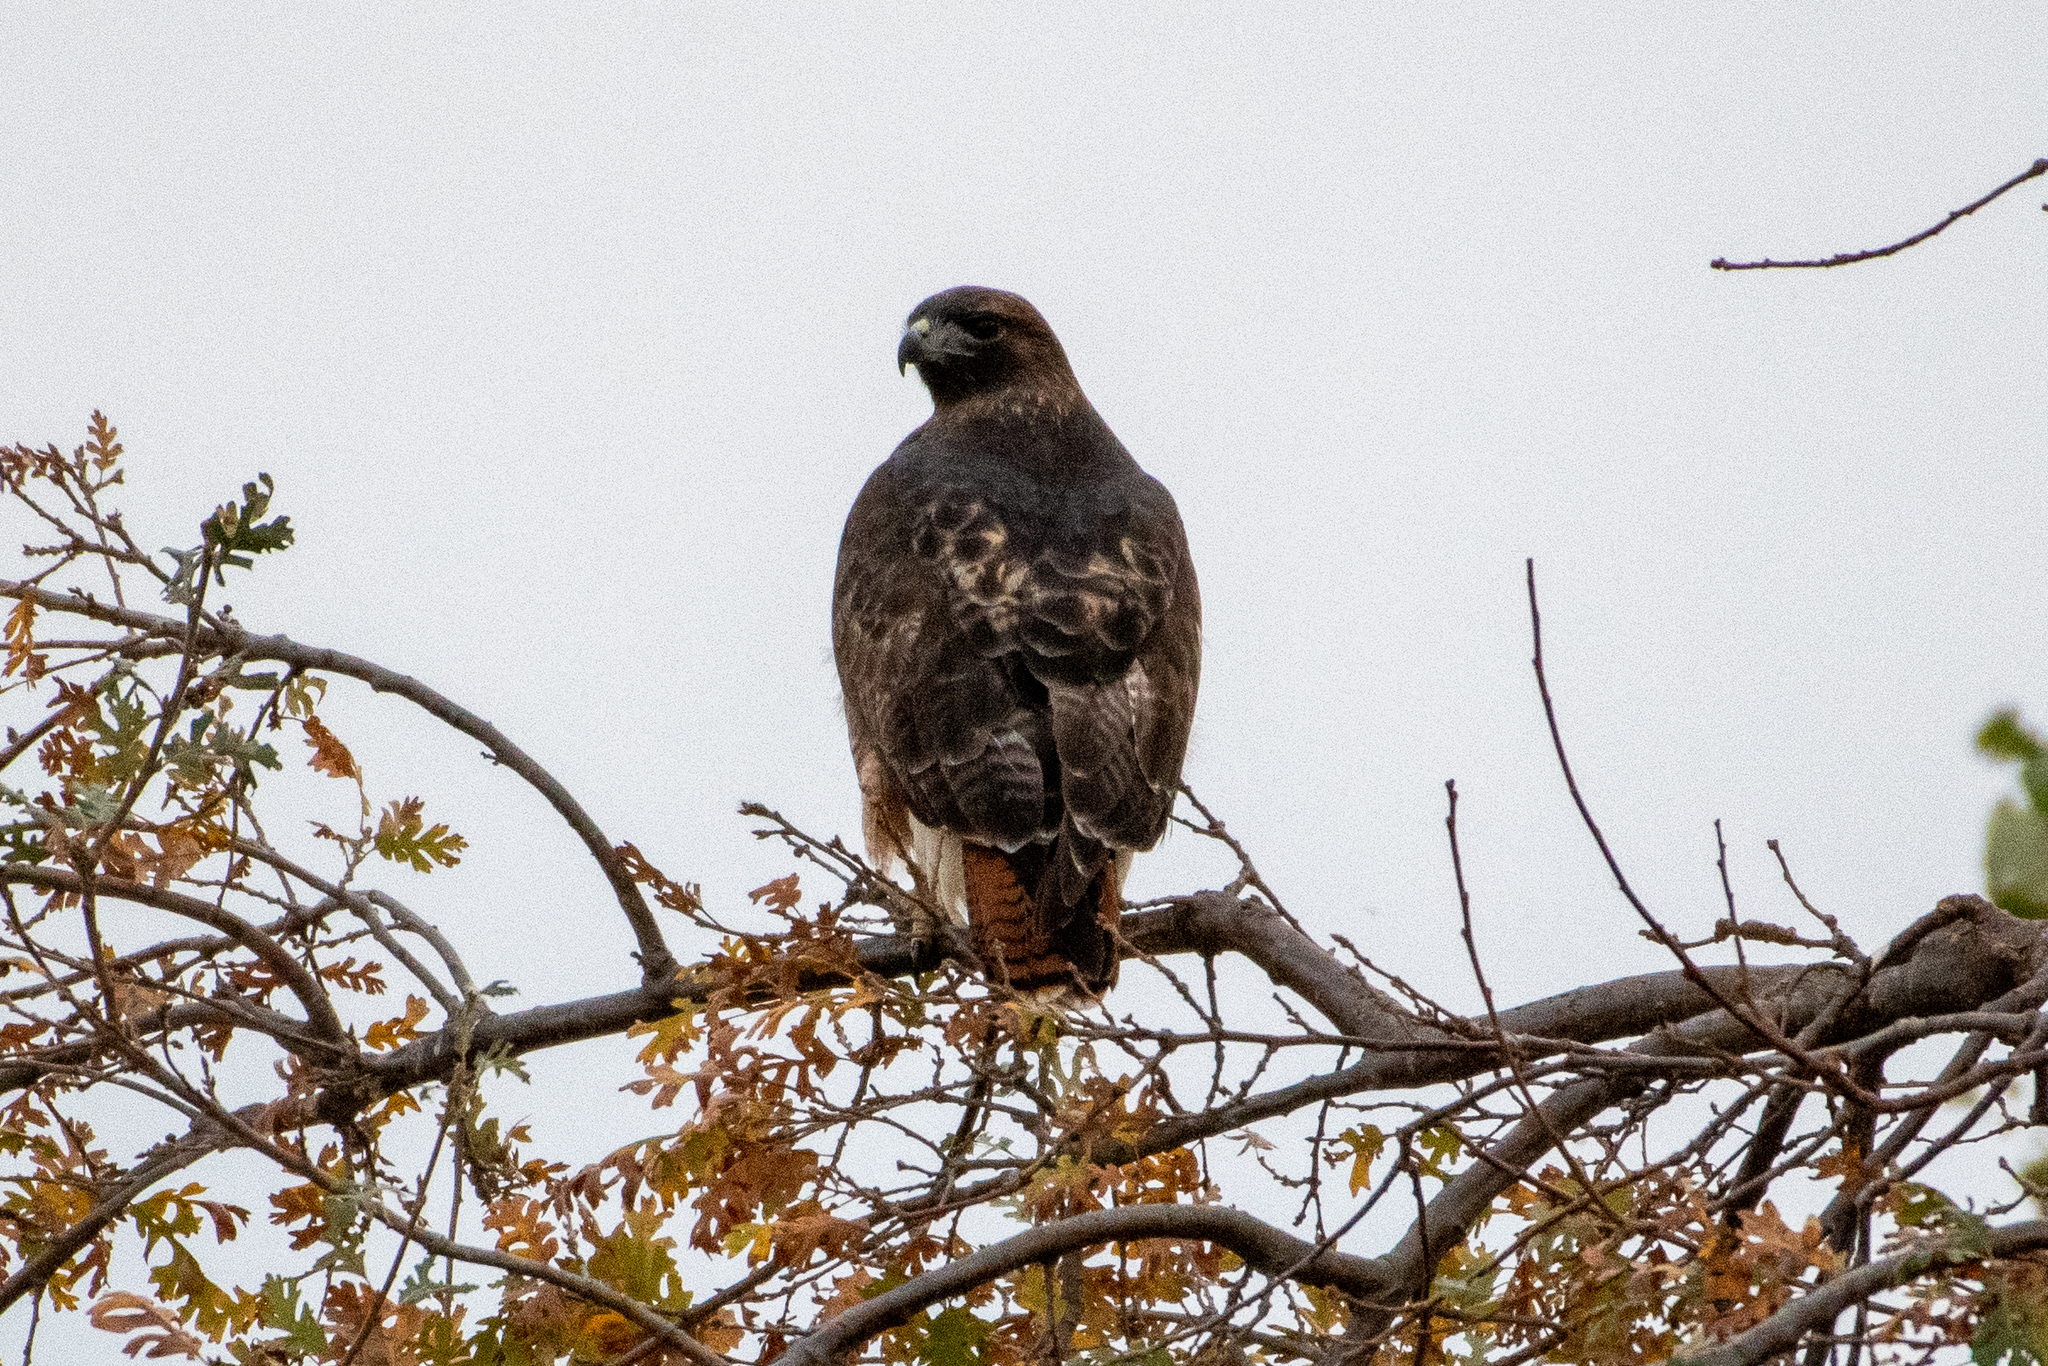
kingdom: Animalia
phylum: Chordata
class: Aves
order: Accipitriformes
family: Accipitridae
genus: Buteo
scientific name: Buteo jamaicensis
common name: Red-tailed hawk
